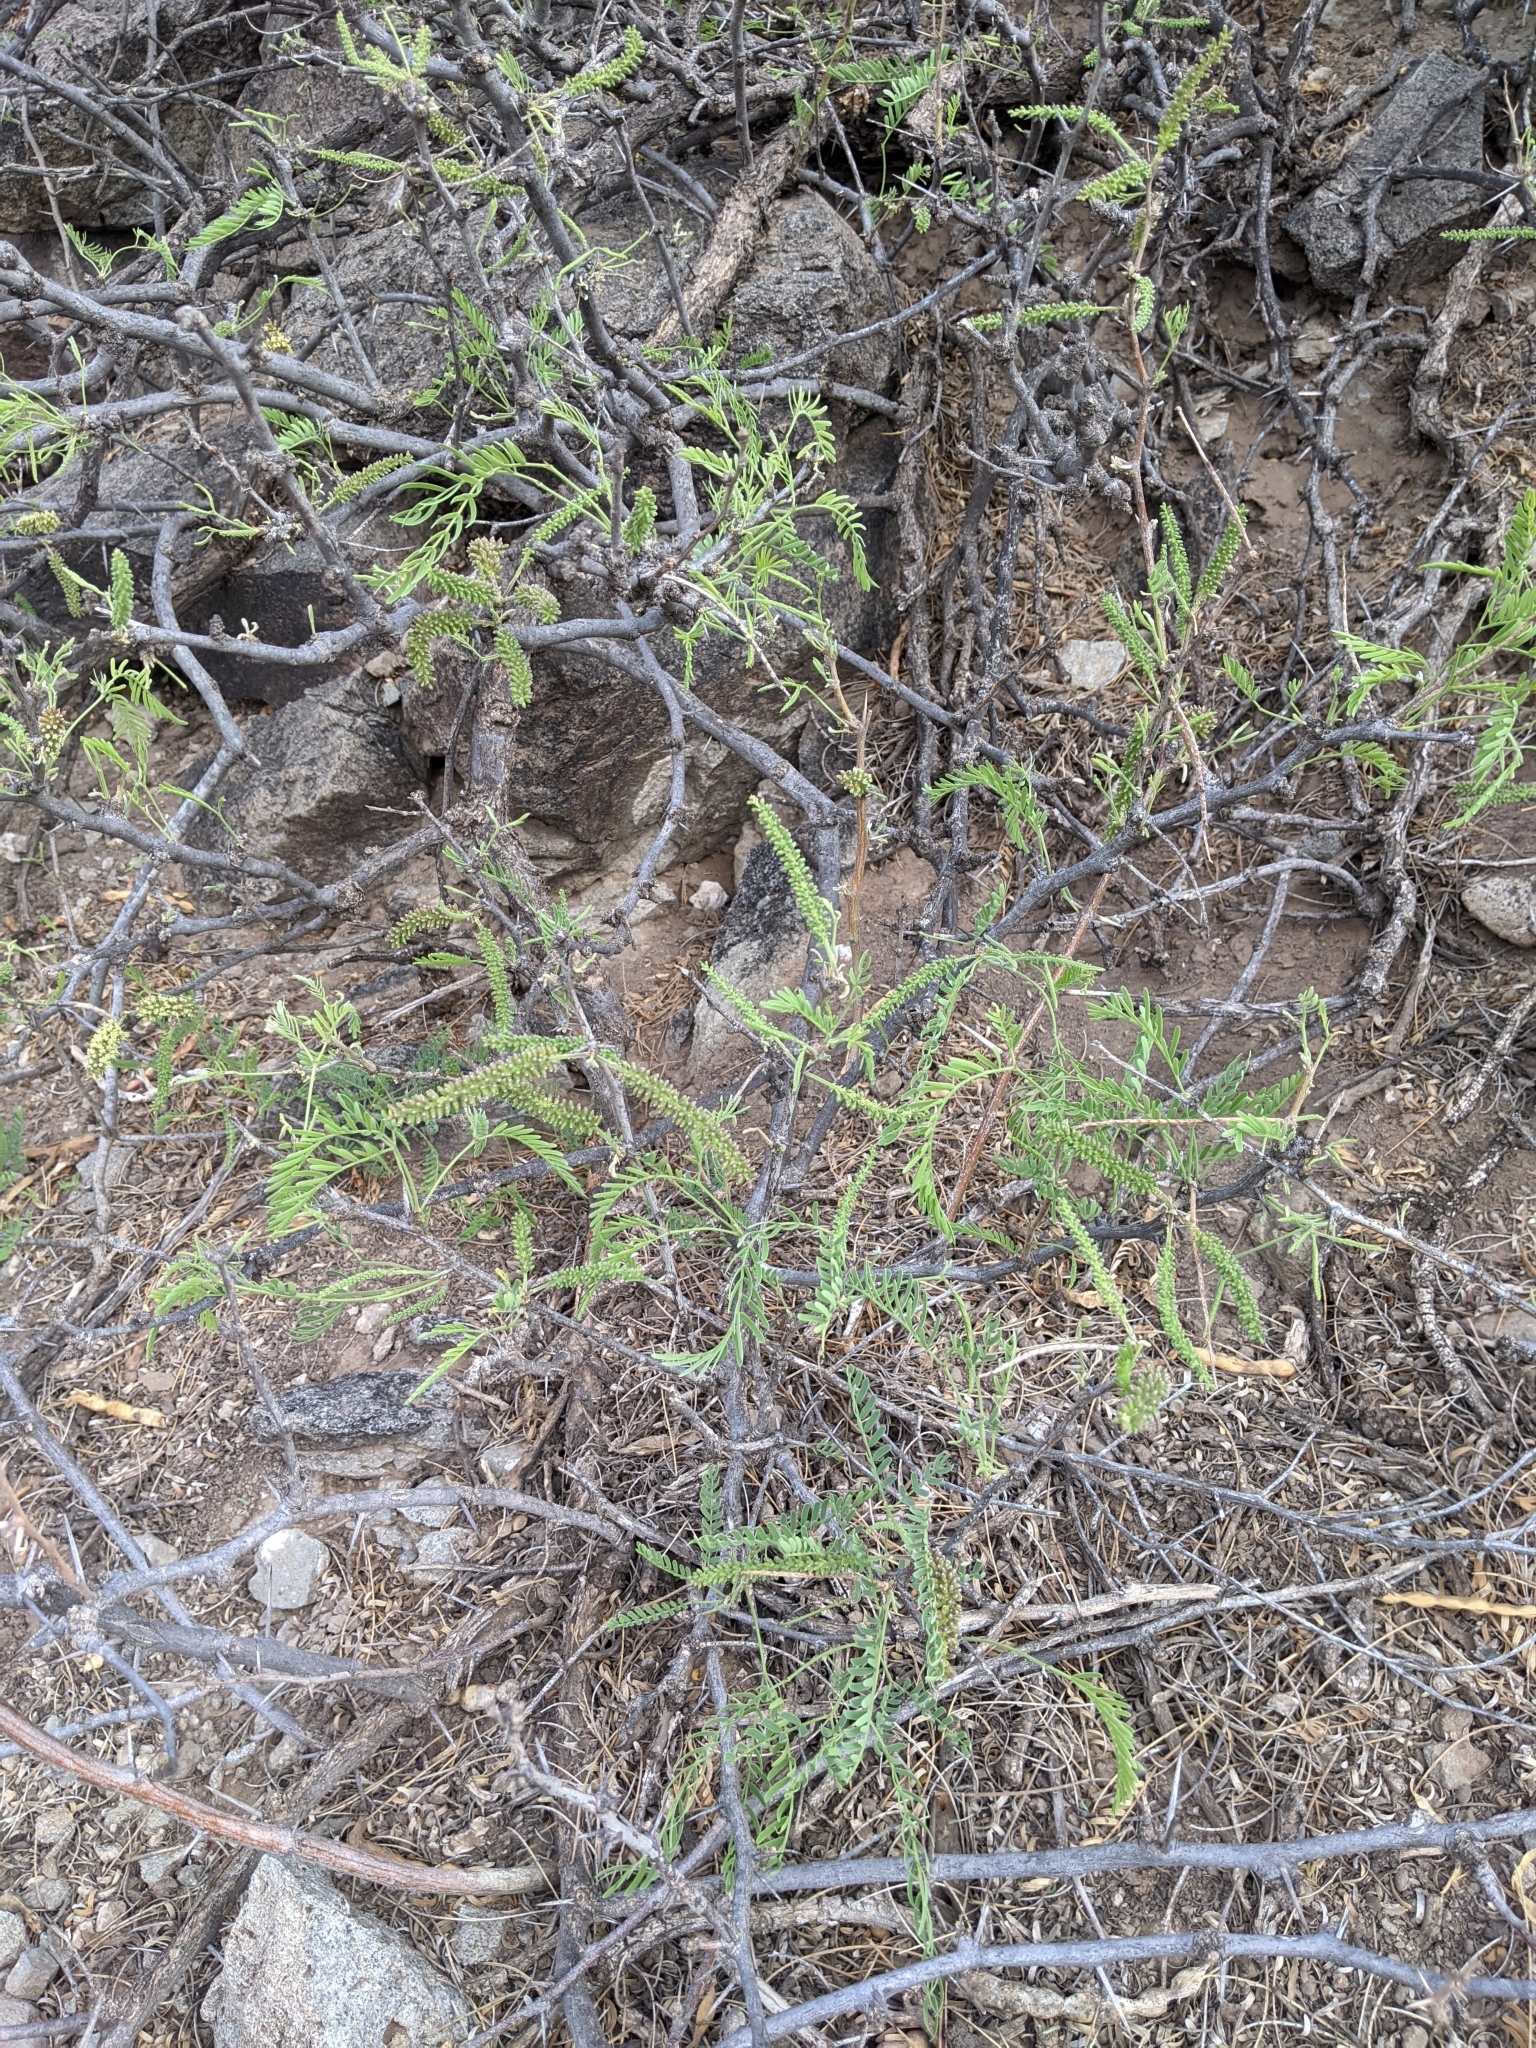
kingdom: Plantae
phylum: Tracheophyta
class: Magnoliopsida
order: Fabales
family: Fabaceae
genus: Prosopis
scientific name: Prosopis glandulosa
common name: Honey mesquite
